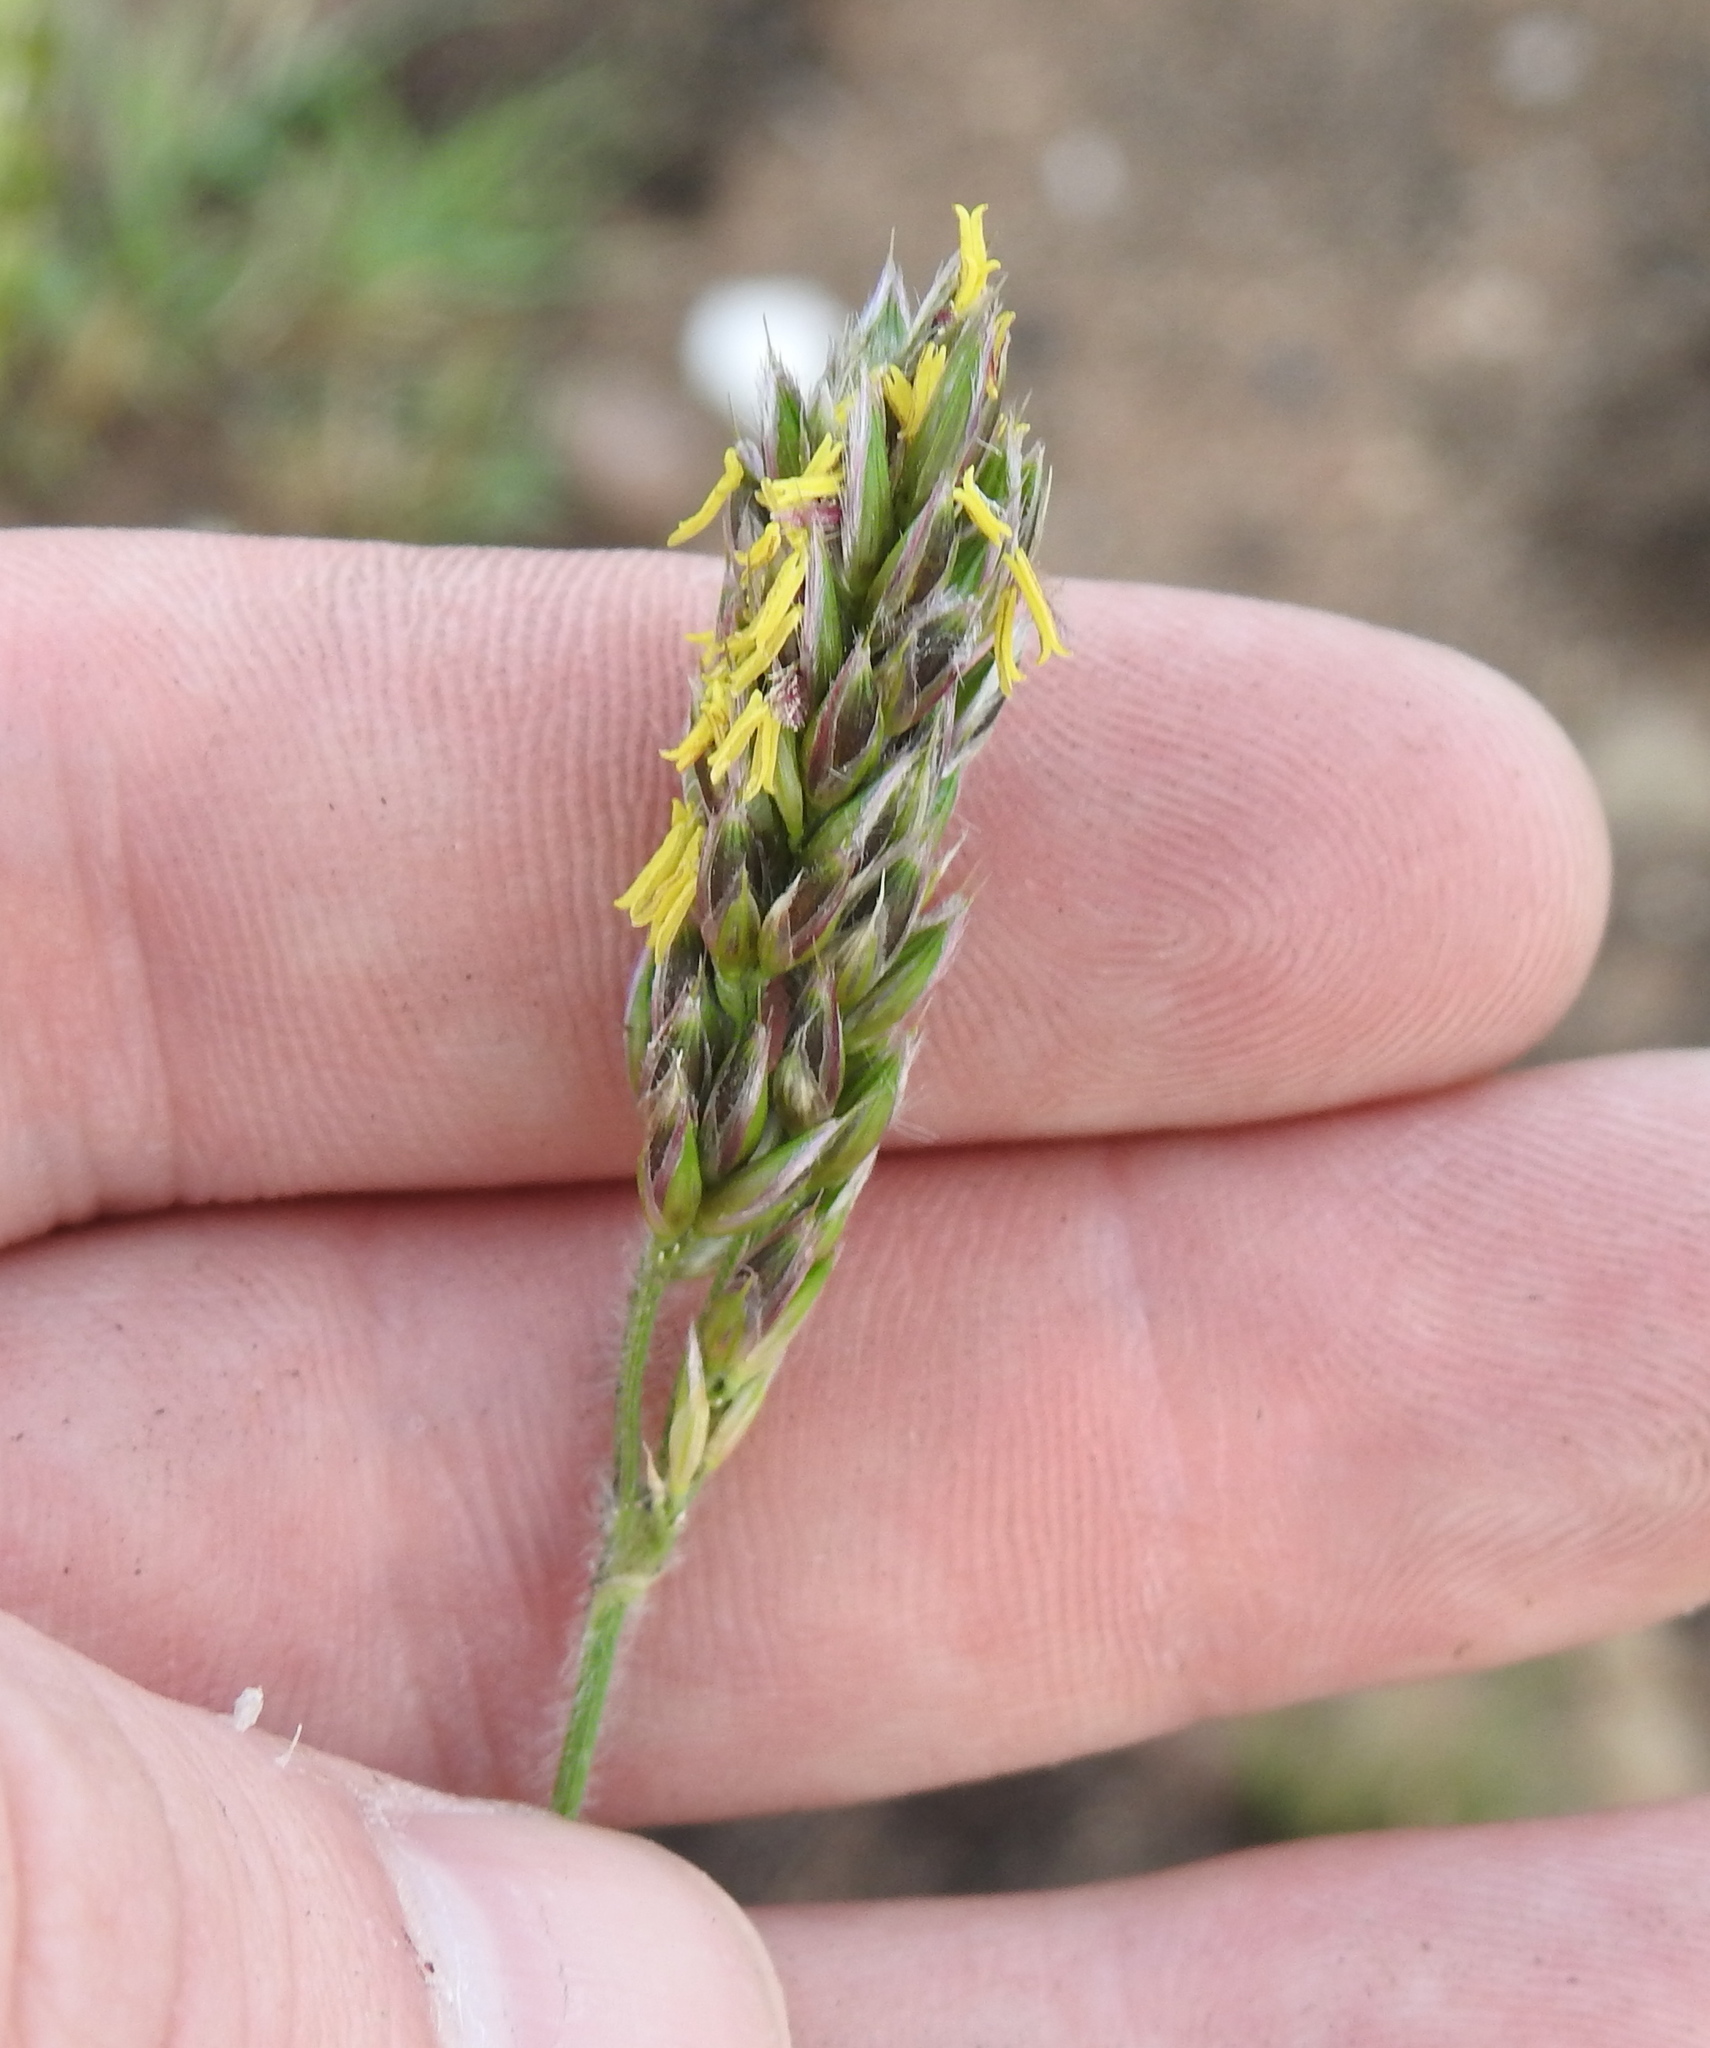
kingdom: Plantae
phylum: Tracheophyta
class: Liliopsida
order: Poales
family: Poaceae
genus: Alloteropsis
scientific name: Alloteropsis semialata
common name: Cockatoo grass
